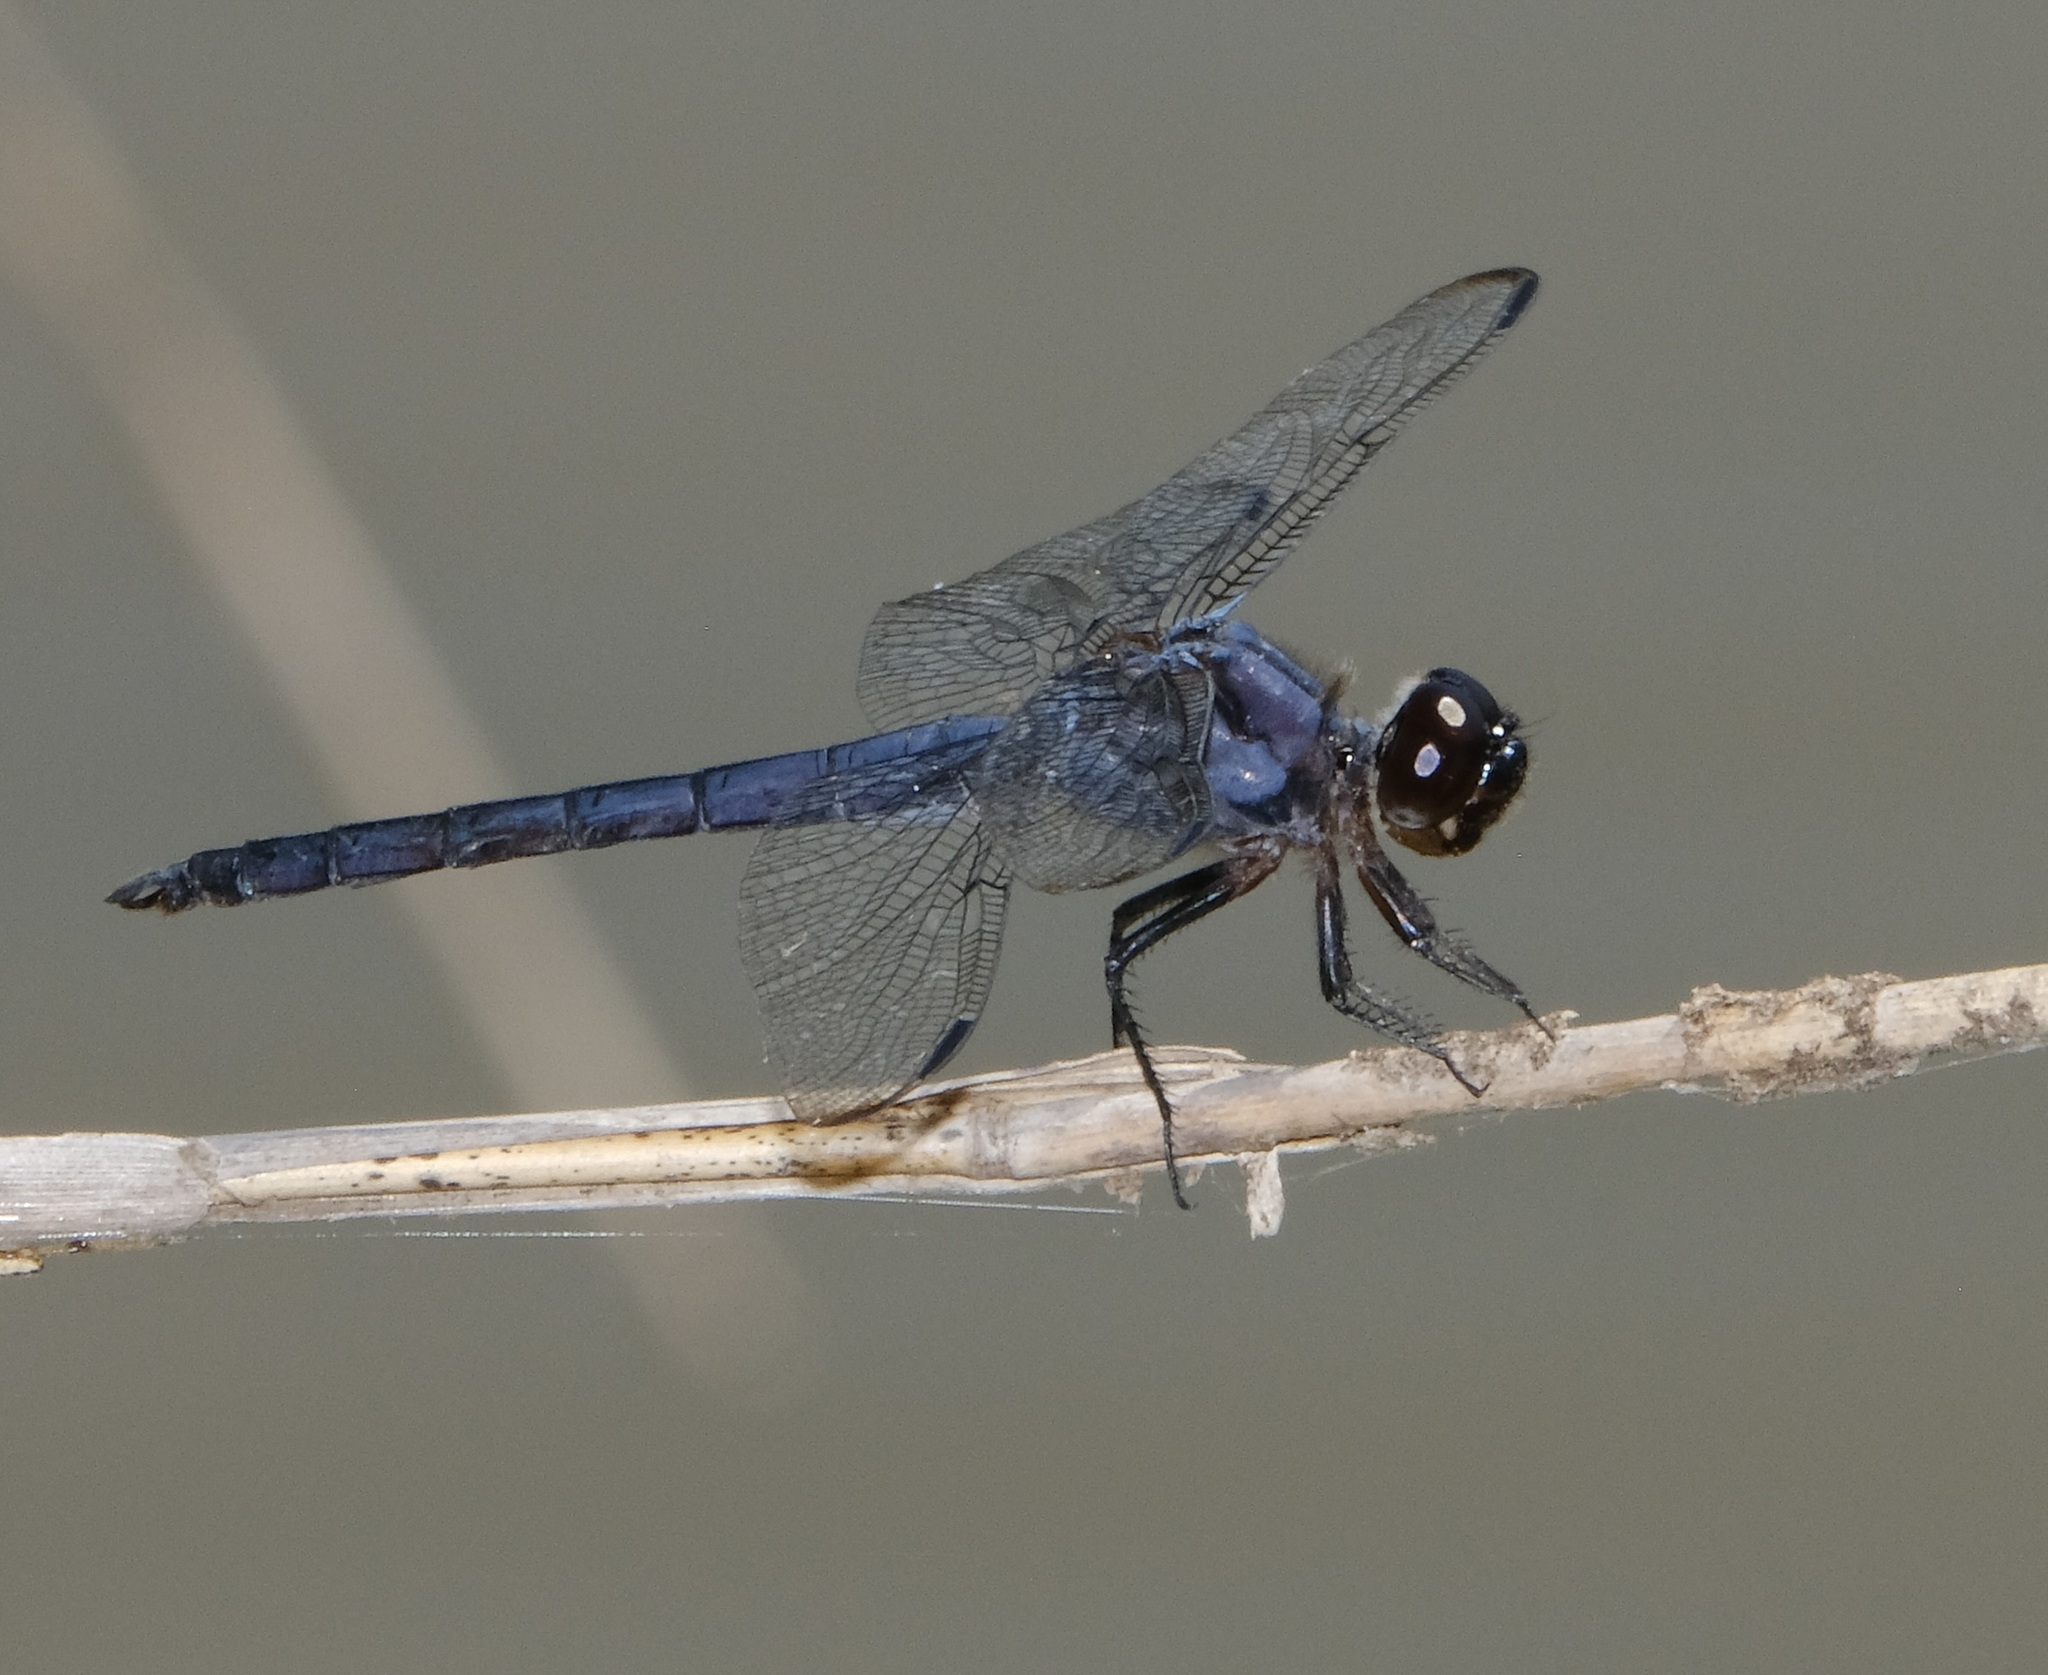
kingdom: Animalia
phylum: Arthropoda
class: Insecta
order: Odonata
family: Libellulidae
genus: Libellula
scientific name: Libellula incesta
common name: Slaty skimmer
